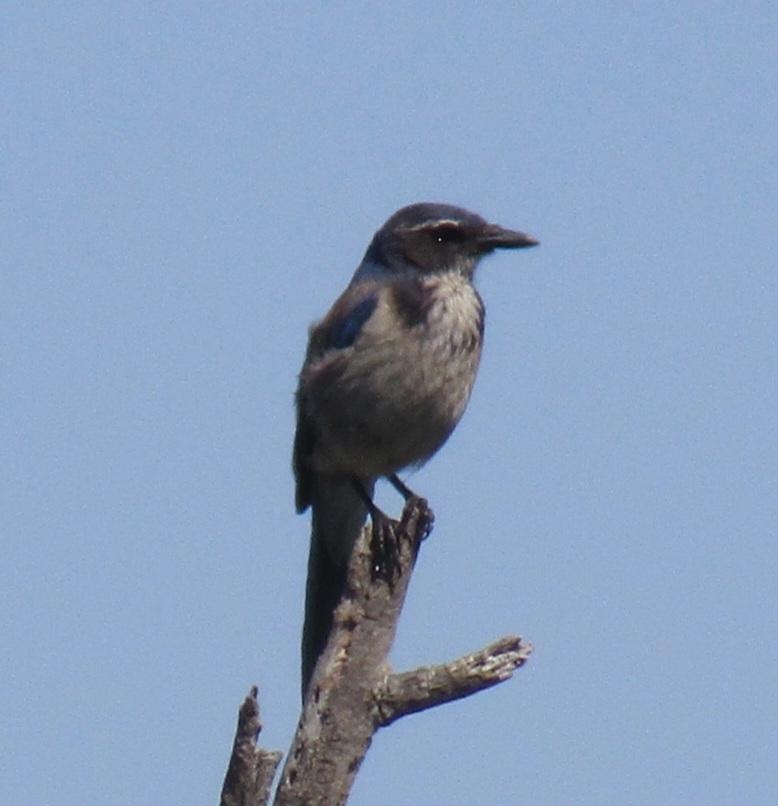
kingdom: Animalia
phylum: Chordata
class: Aves
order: Passeriformes
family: Corvidae
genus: Aphelocoma
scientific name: Aphelocoma californica
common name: California scrub-jay
